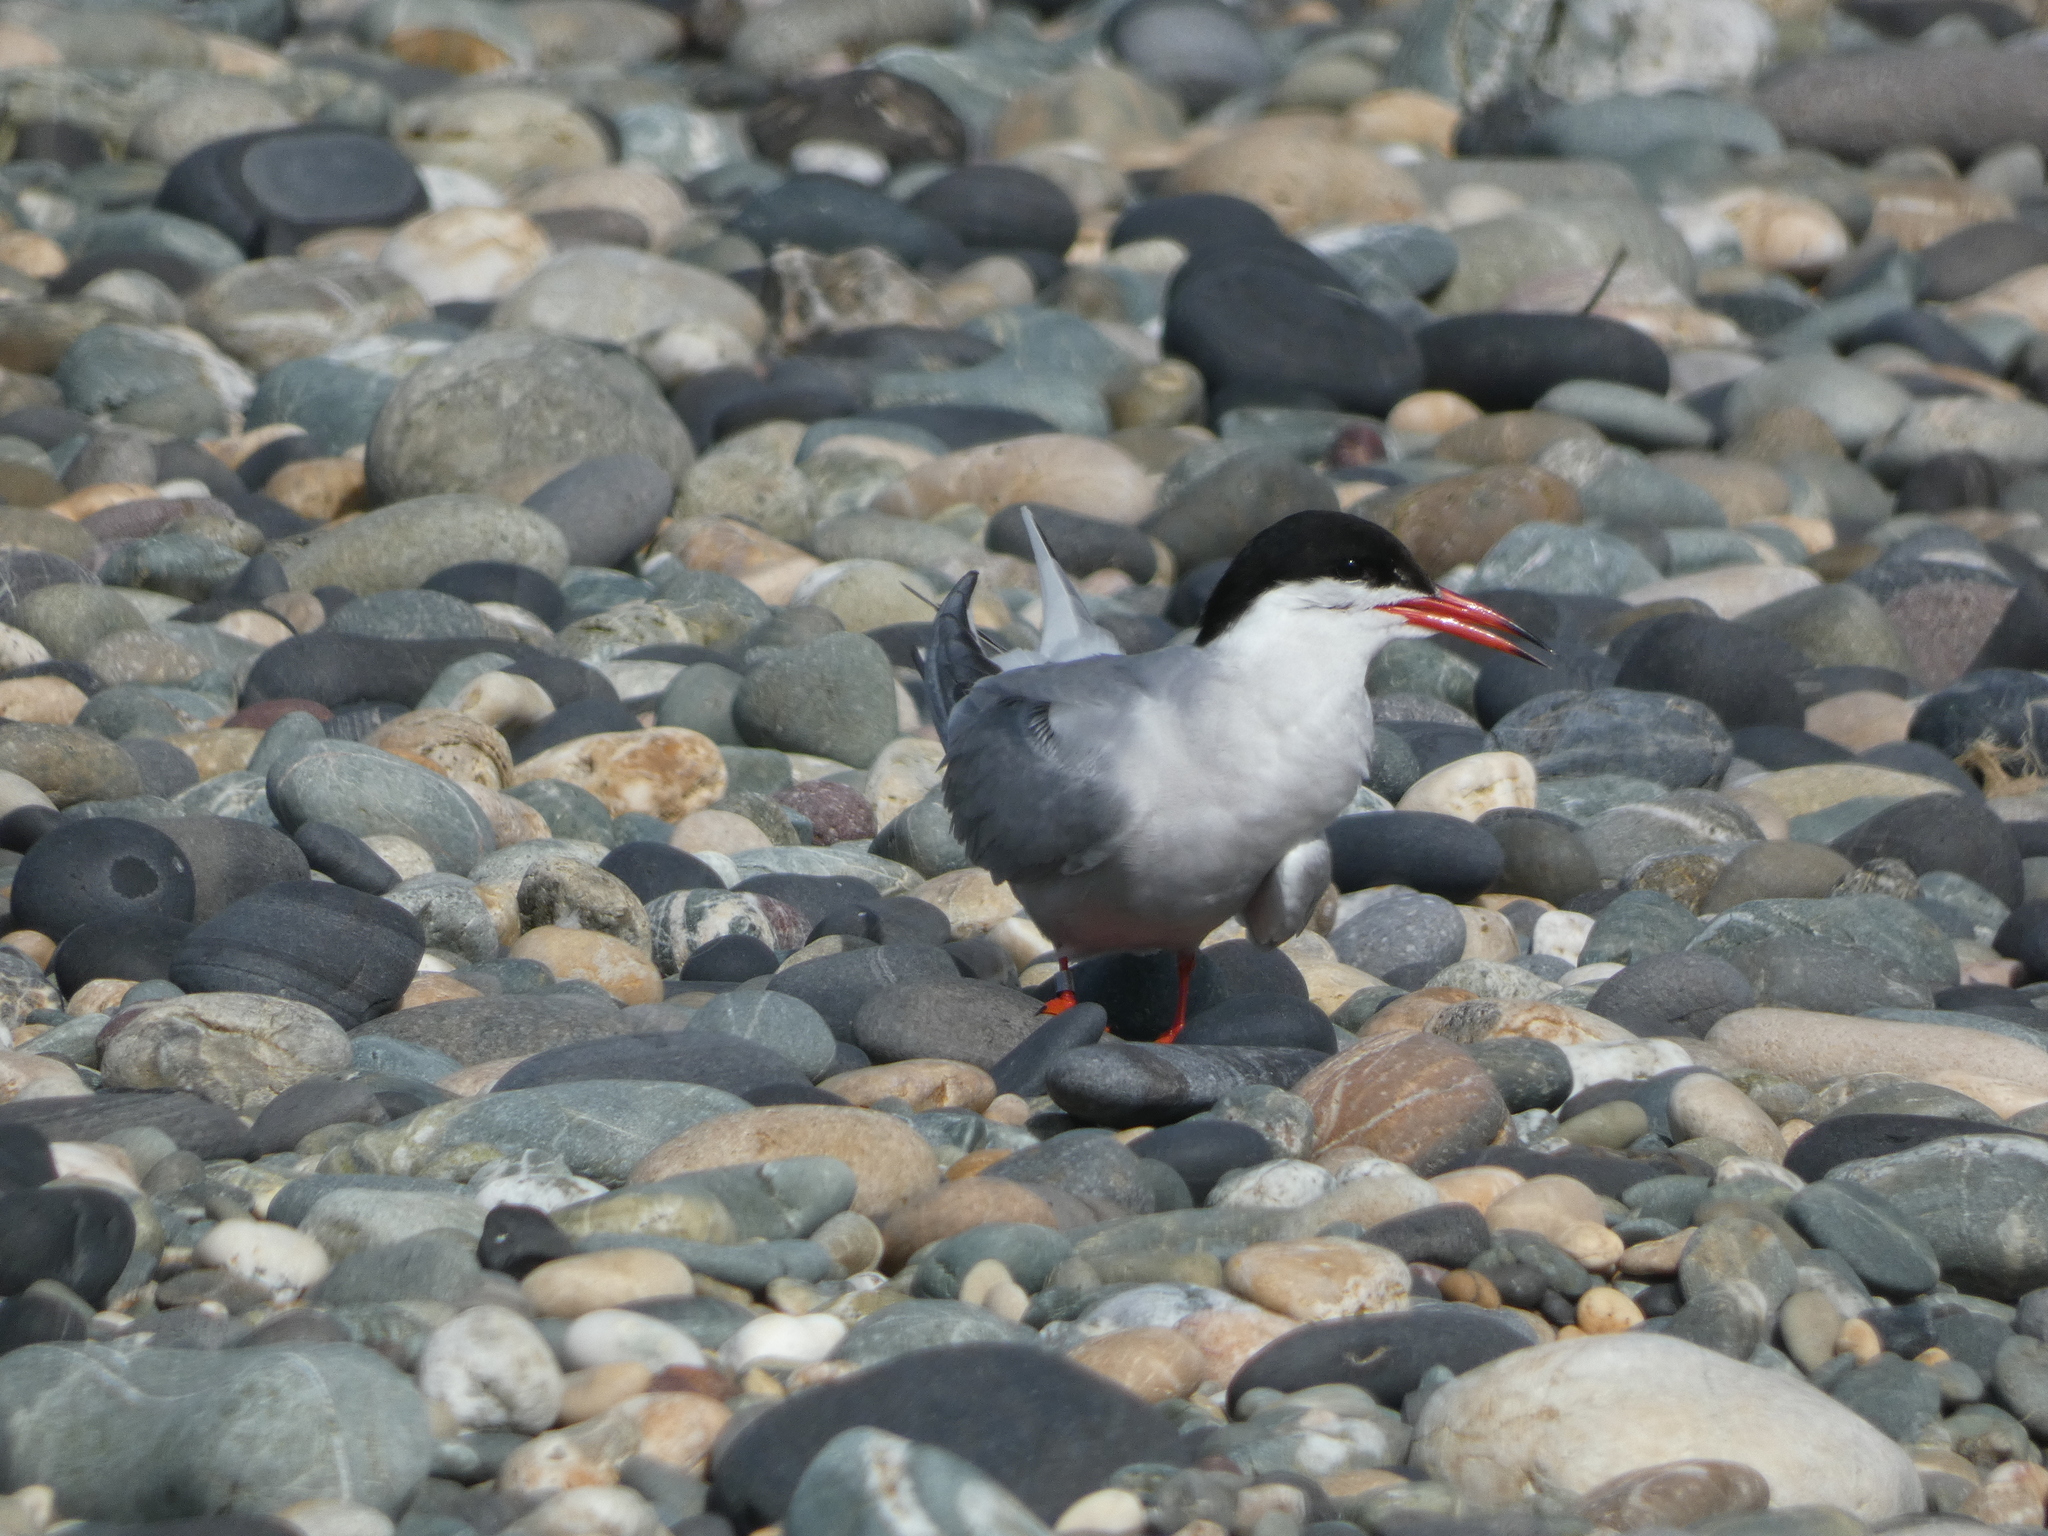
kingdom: Animalia
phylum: Chordata
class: Aves
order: Charadriiformes
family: Laridae
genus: Sterna
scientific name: Sterna hirundo
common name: Common tern
